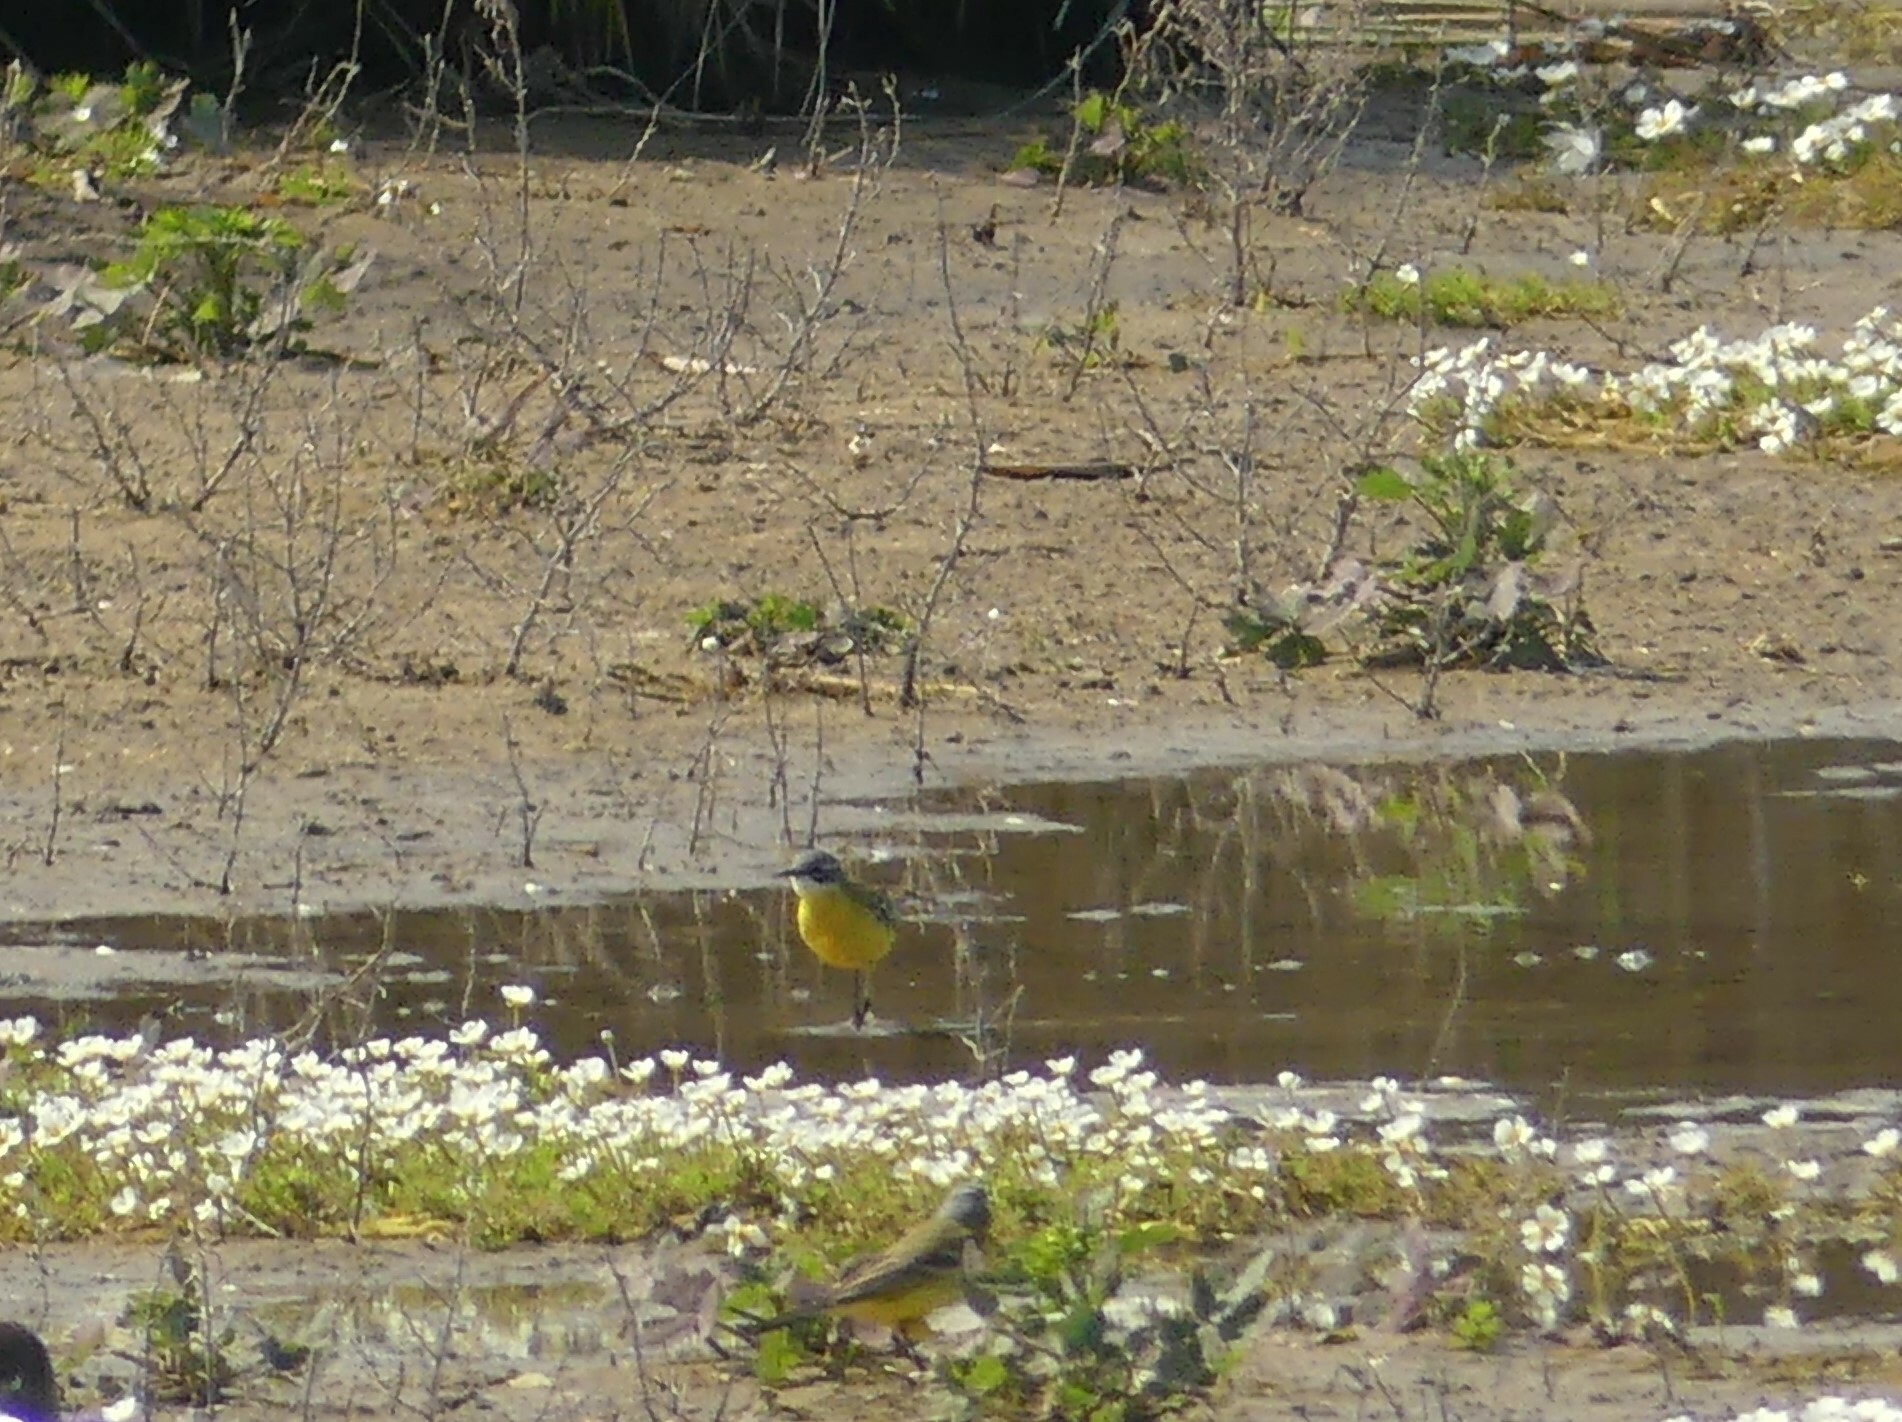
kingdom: Animalia
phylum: Chordata
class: Aves
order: Passeriformes
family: Motacillidae
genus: Motacilla
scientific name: Motacilla flava
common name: Western yellow wagtail
